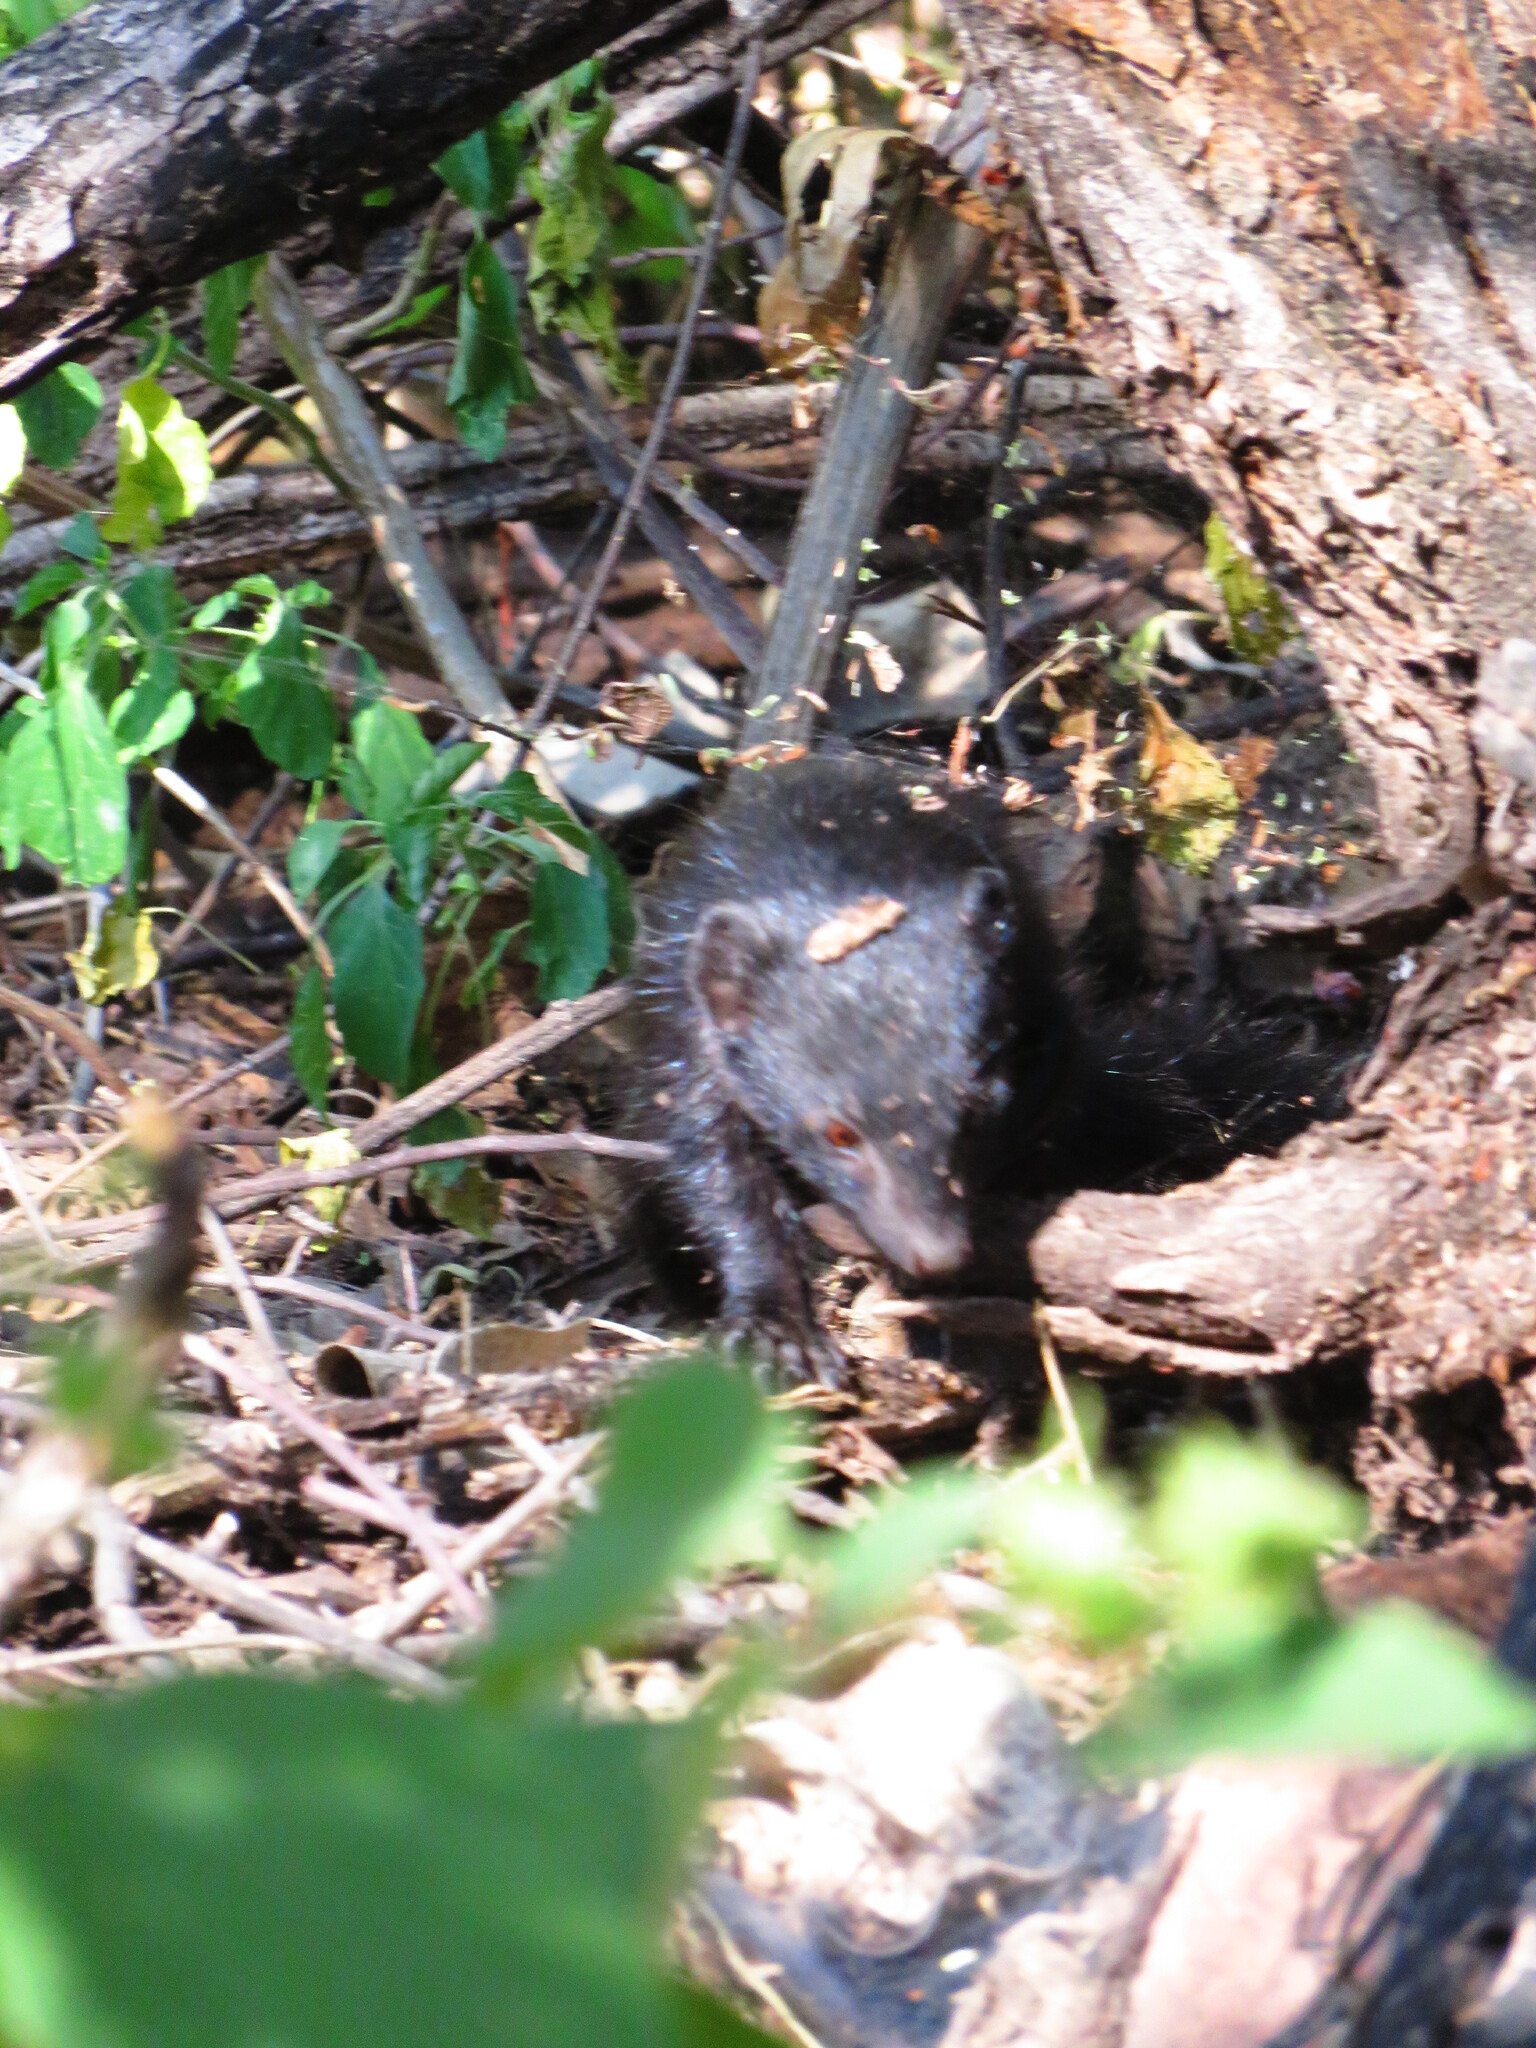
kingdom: Animalia
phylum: Chordata
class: Mammalia
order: Carnivora
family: Herpestidae
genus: Helogale
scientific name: Helogale parvula
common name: Common dwarf mongoose
